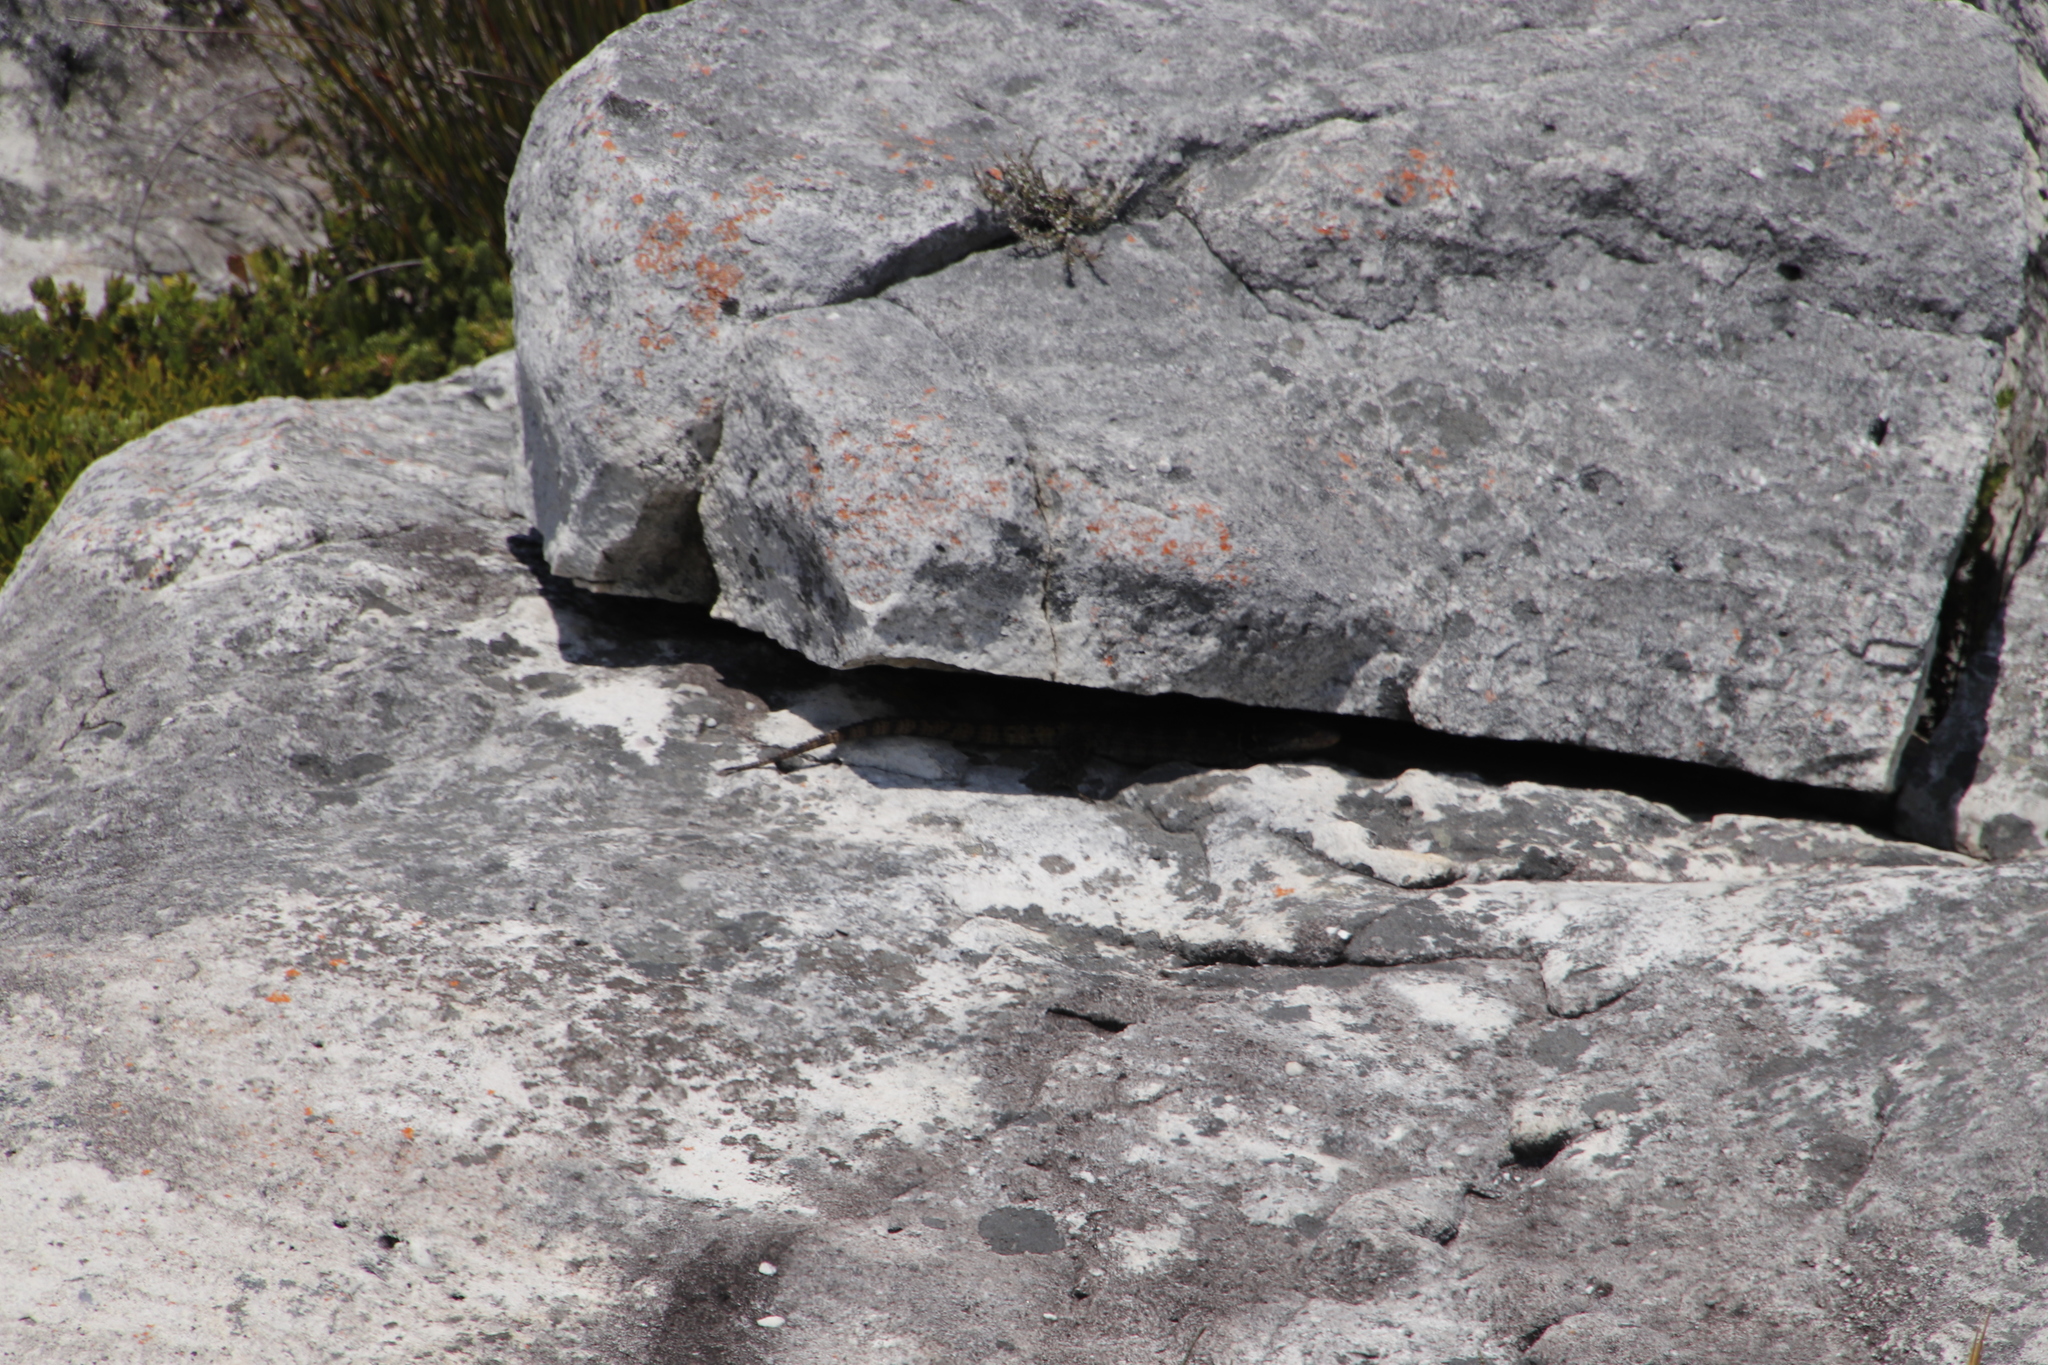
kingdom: Animalia
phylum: Chordata
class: Squamata
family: Cordylidae
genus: Pseudocordylus
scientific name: Pseudocordylus microlepidotus
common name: Cape crag lizard
